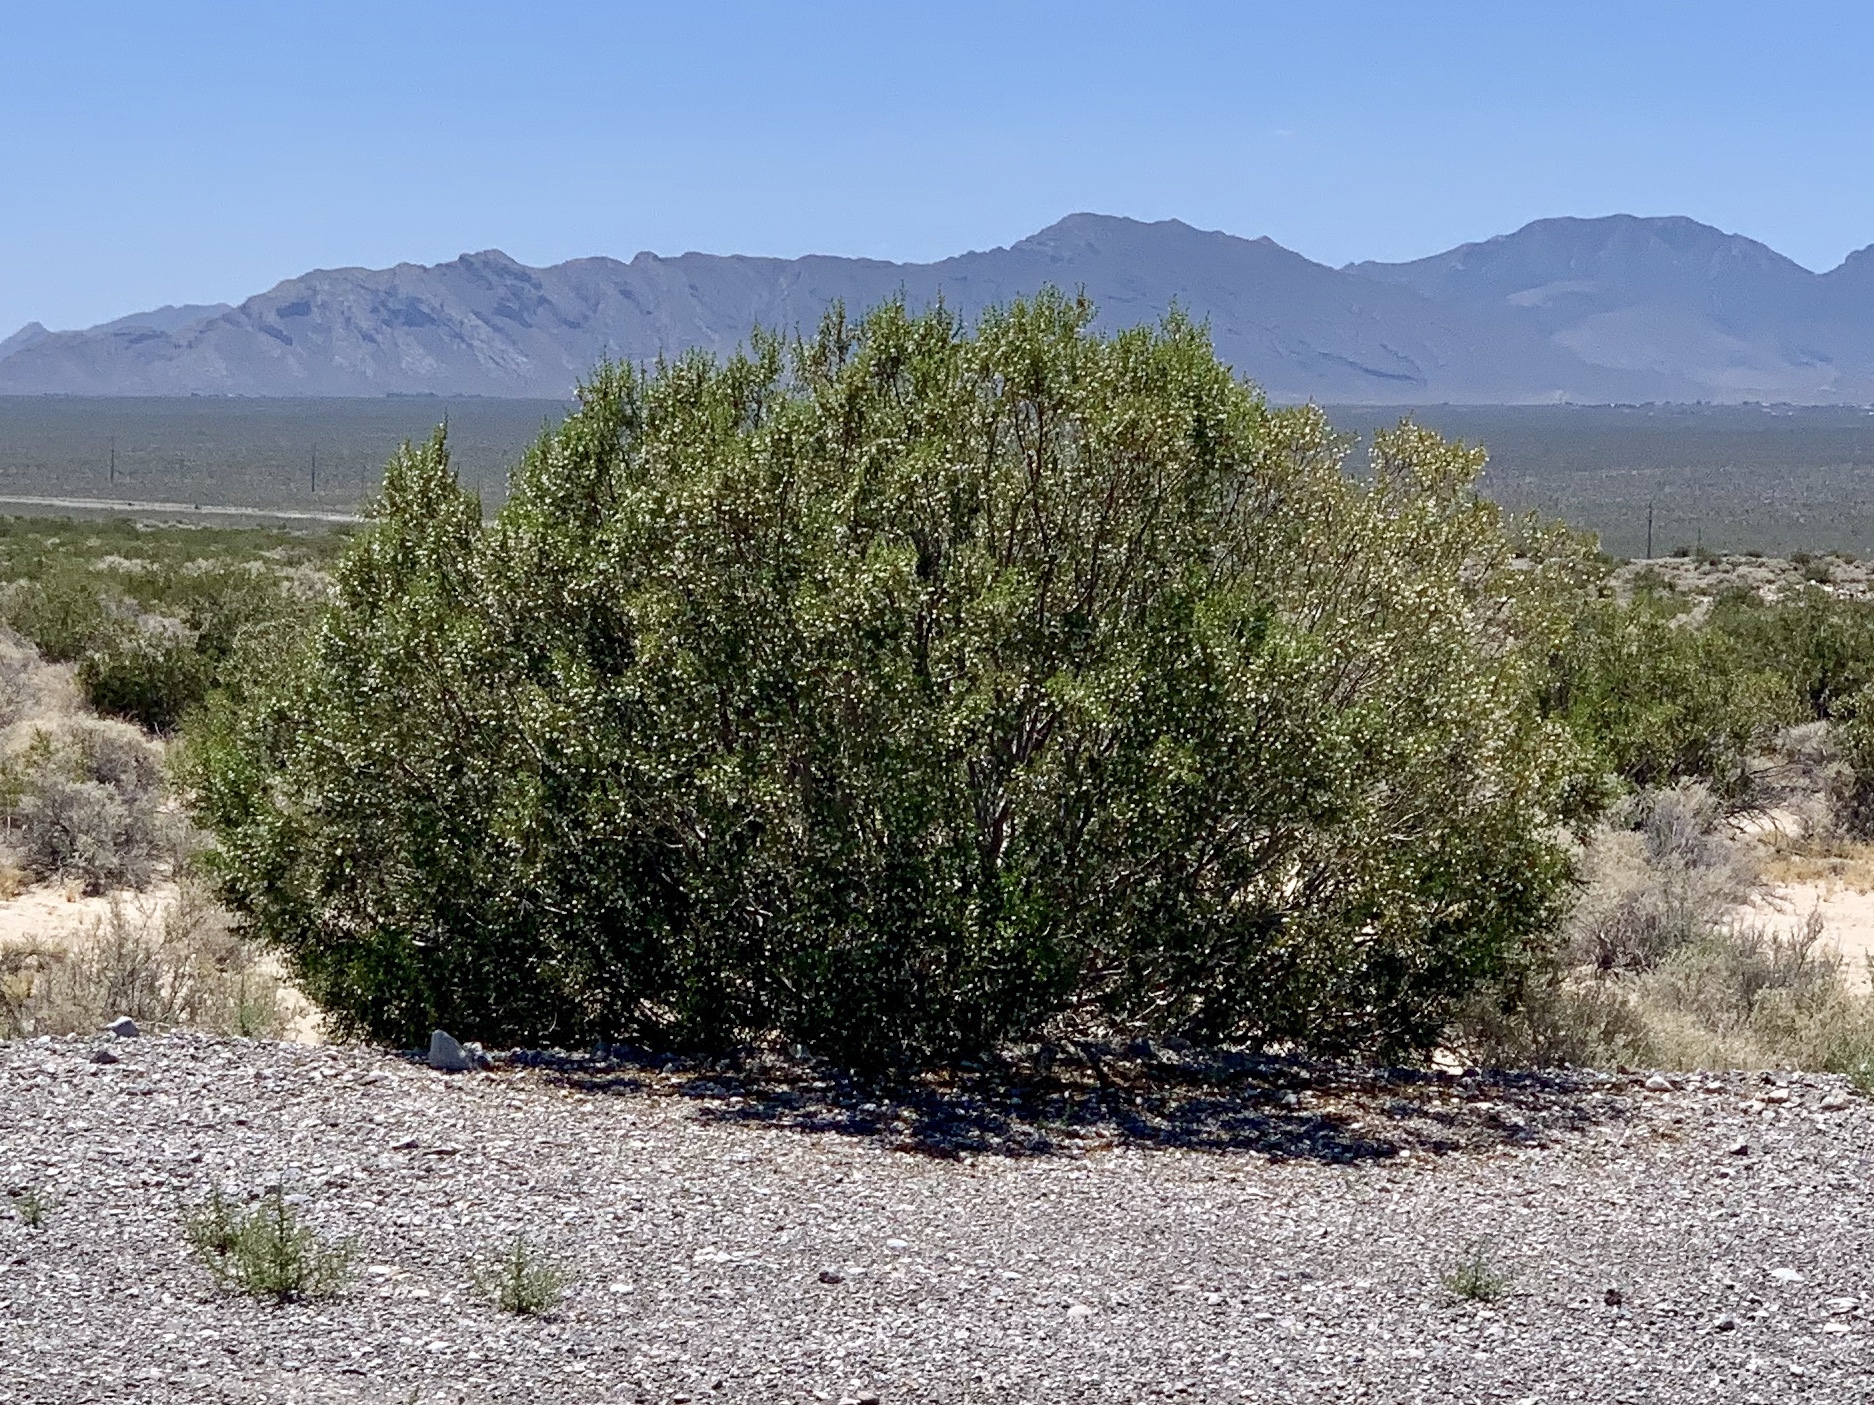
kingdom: Plantae
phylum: Tracheophyta
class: Magnoliopsida
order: Zygophyllales
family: Zygophyllaceae
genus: Larrea
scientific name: Larrea tridentata
